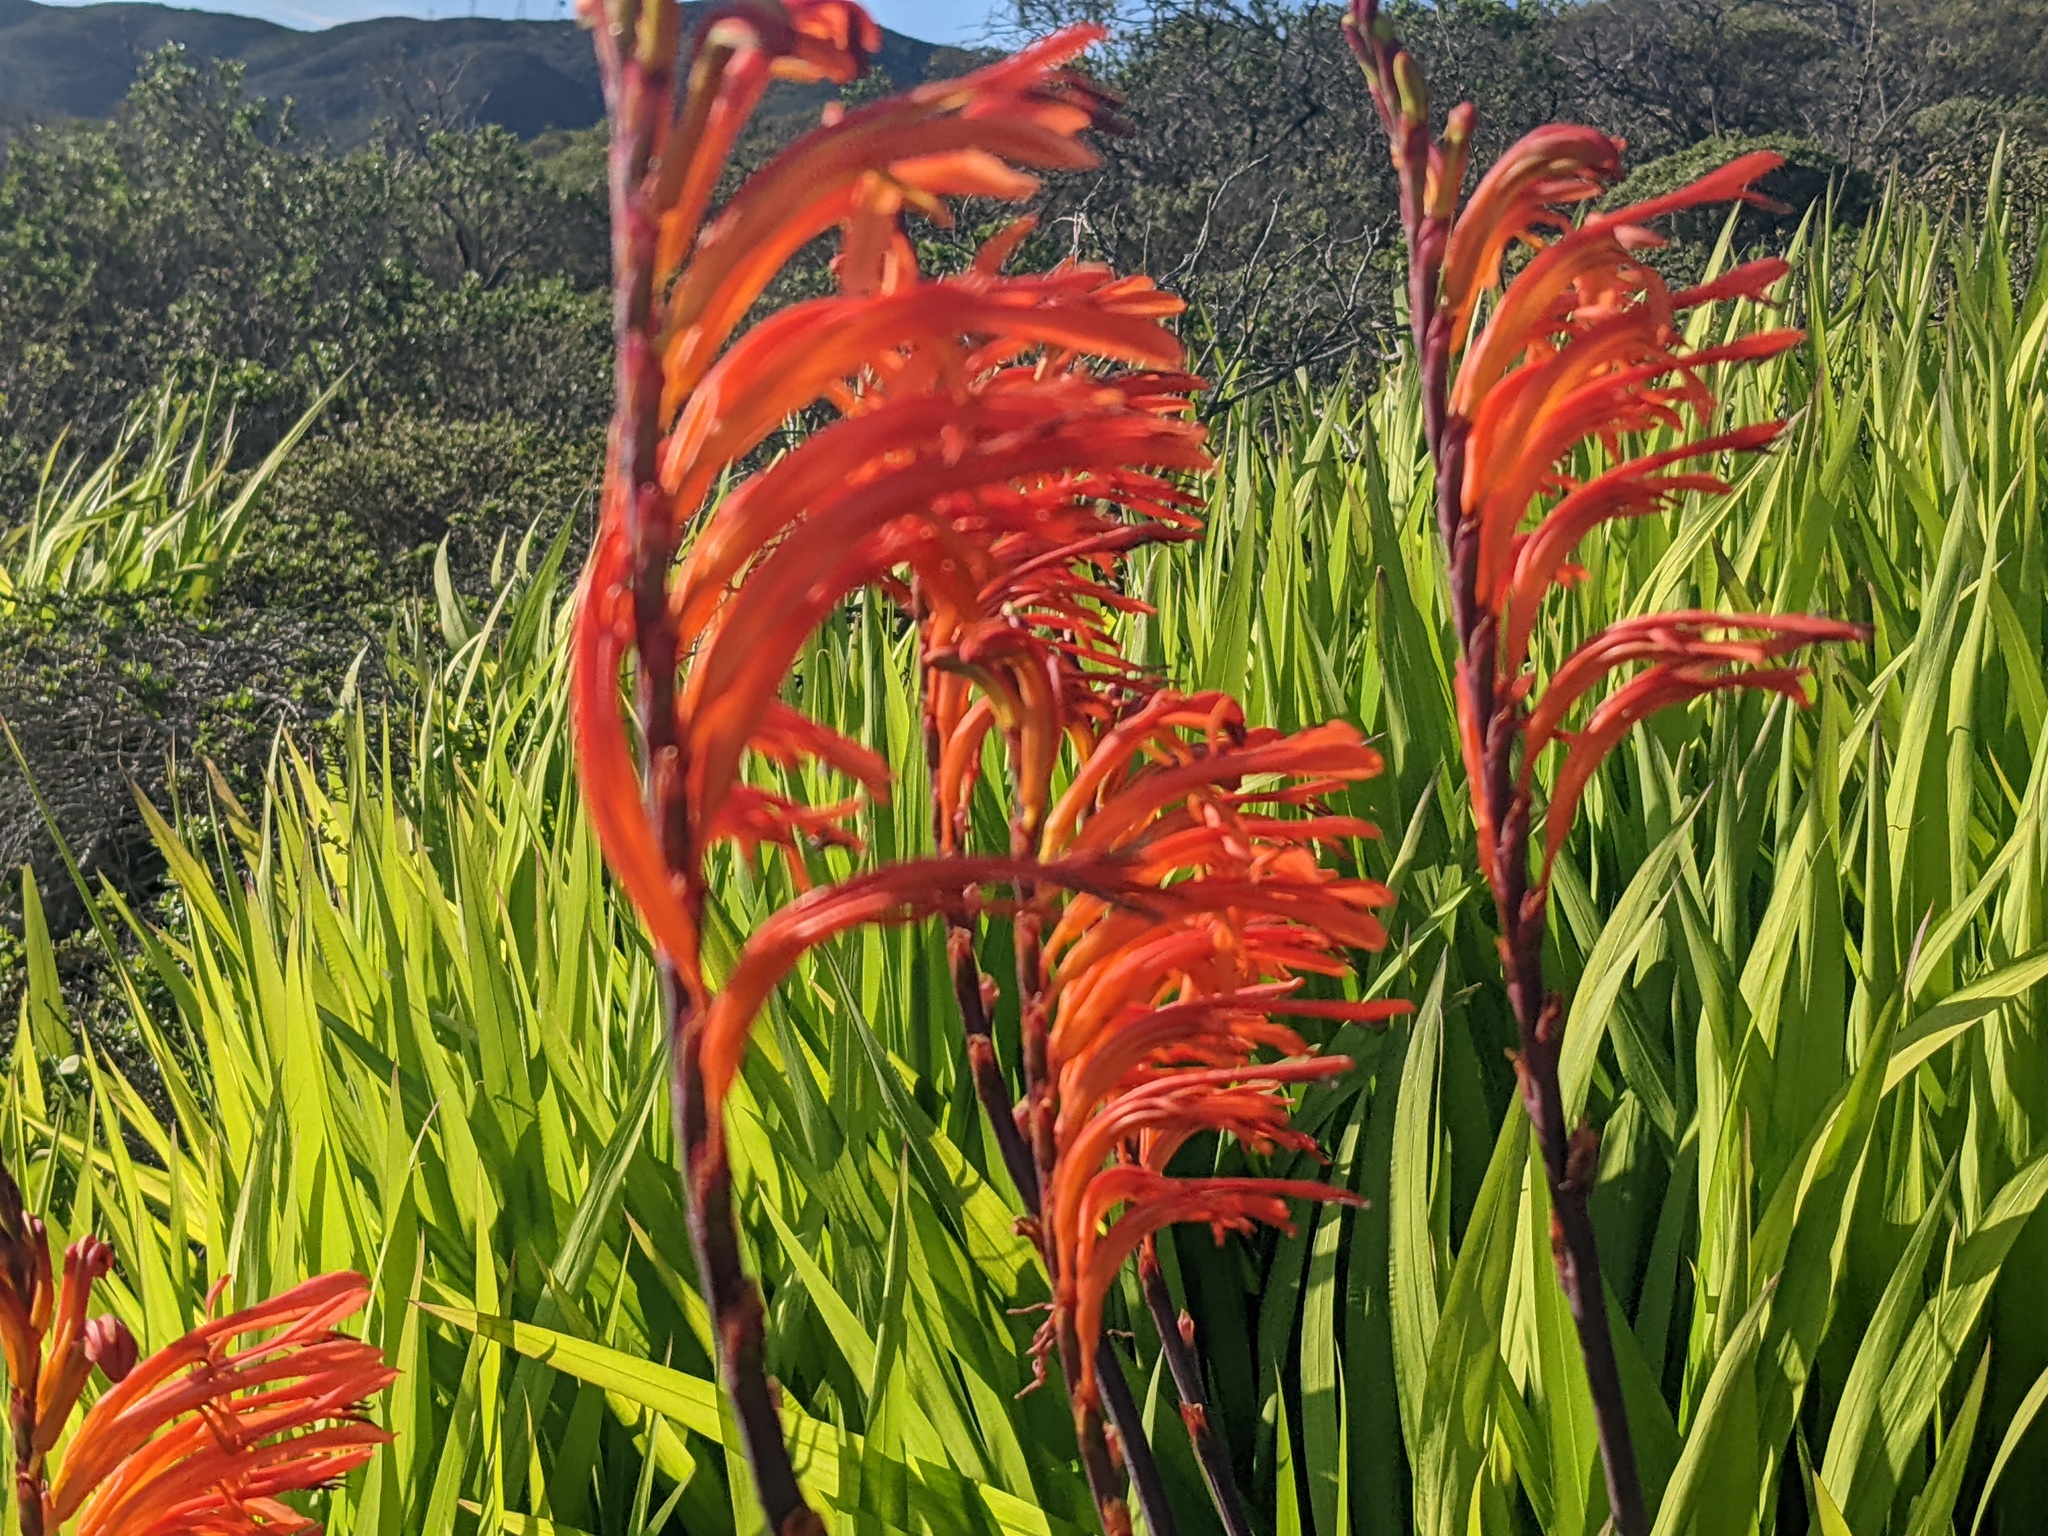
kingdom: Plantae
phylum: Tracheophyta
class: Liliopsida
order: Asparagales
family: Iridaceae
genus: Chasmanthe
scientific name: Chasmanthe floribunda
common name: African cornflag
